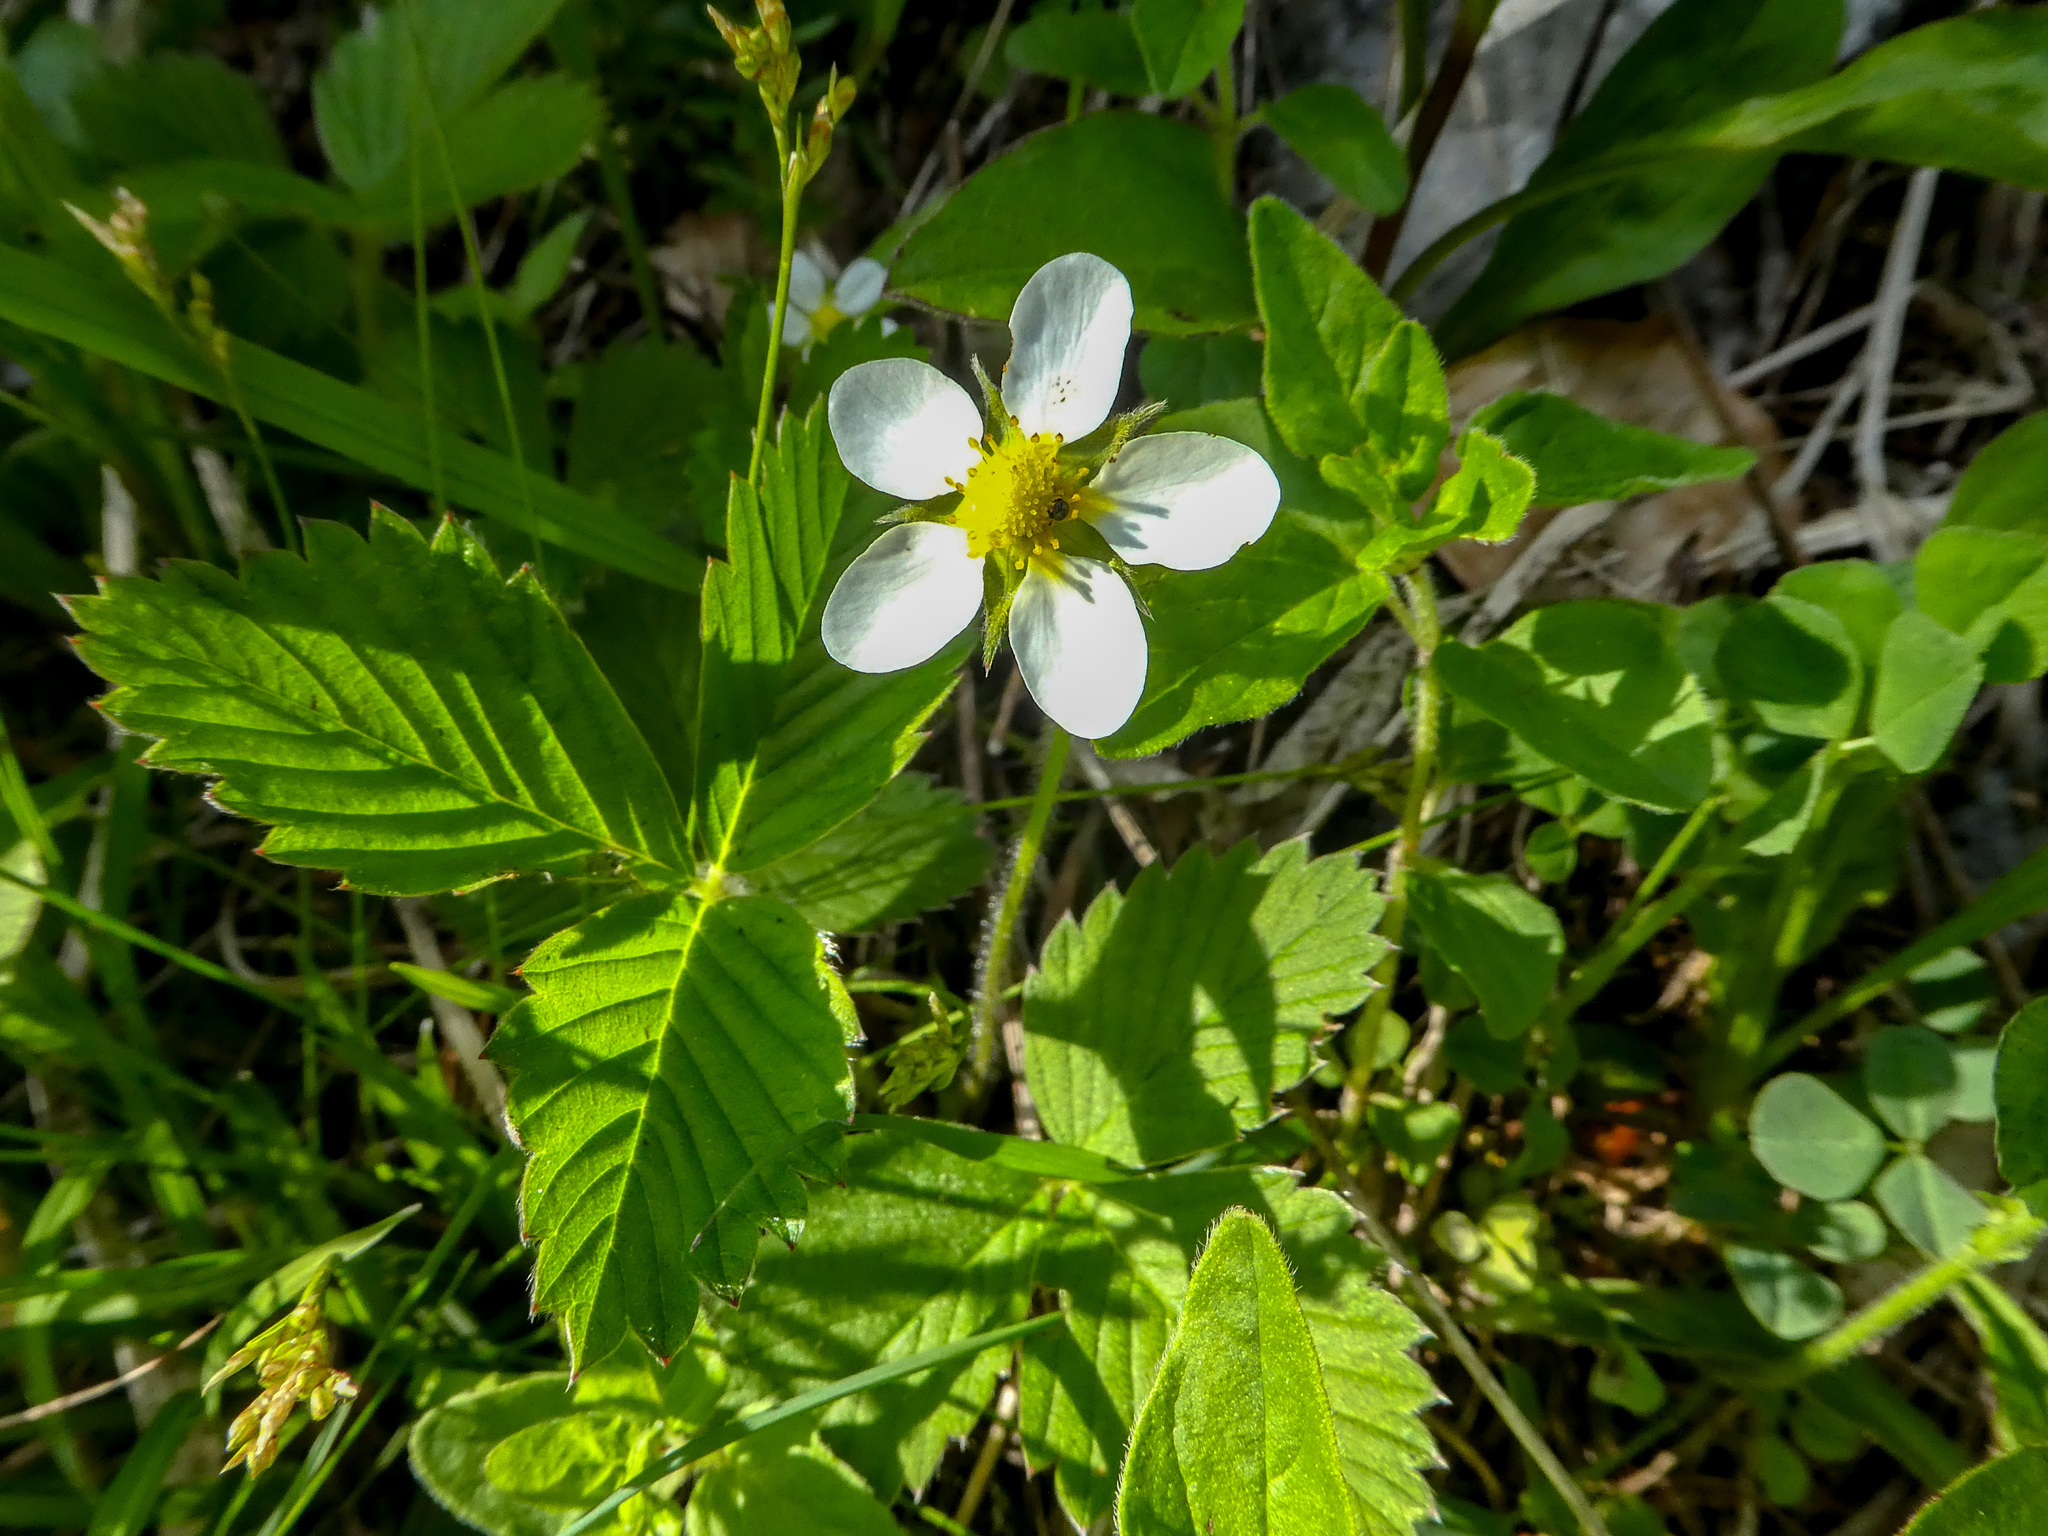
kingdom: Plantae
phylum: Tracheophyta
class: Magnoliopsida
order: Rosales
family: Rosaceae
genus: Fragaria
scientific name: Fragaria vesca
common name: Wild strawberry
